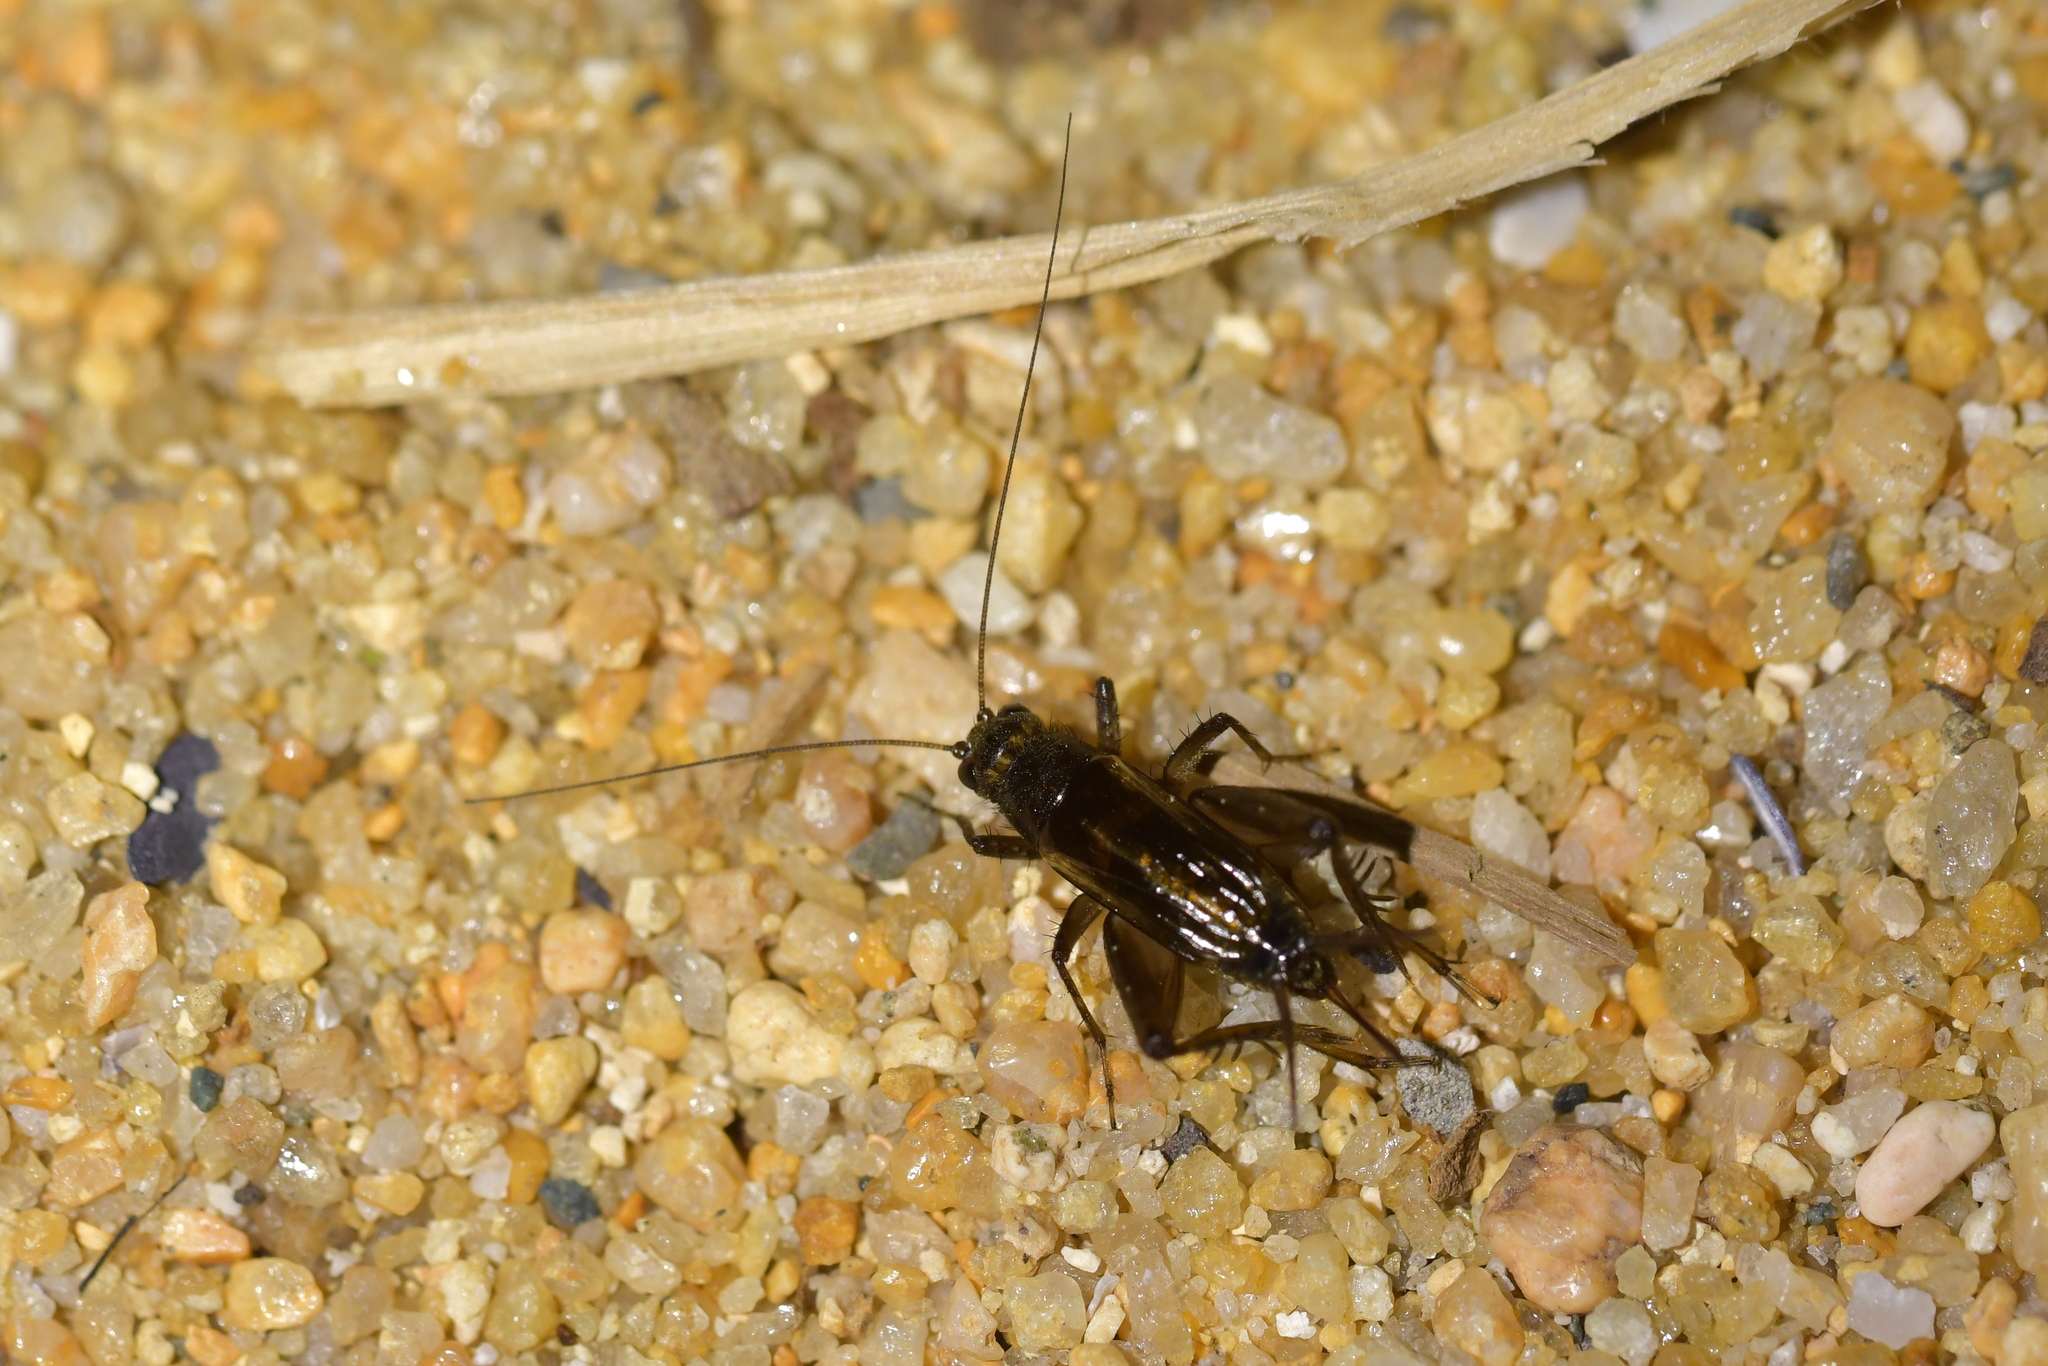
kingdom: Animalia
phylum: Arthropoda
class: Insecta
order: Orthoptera
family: Trigonidiidae
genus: Pteronemobius
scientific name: Pteronemobius truncatus
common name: Confusing pygmy cricket
